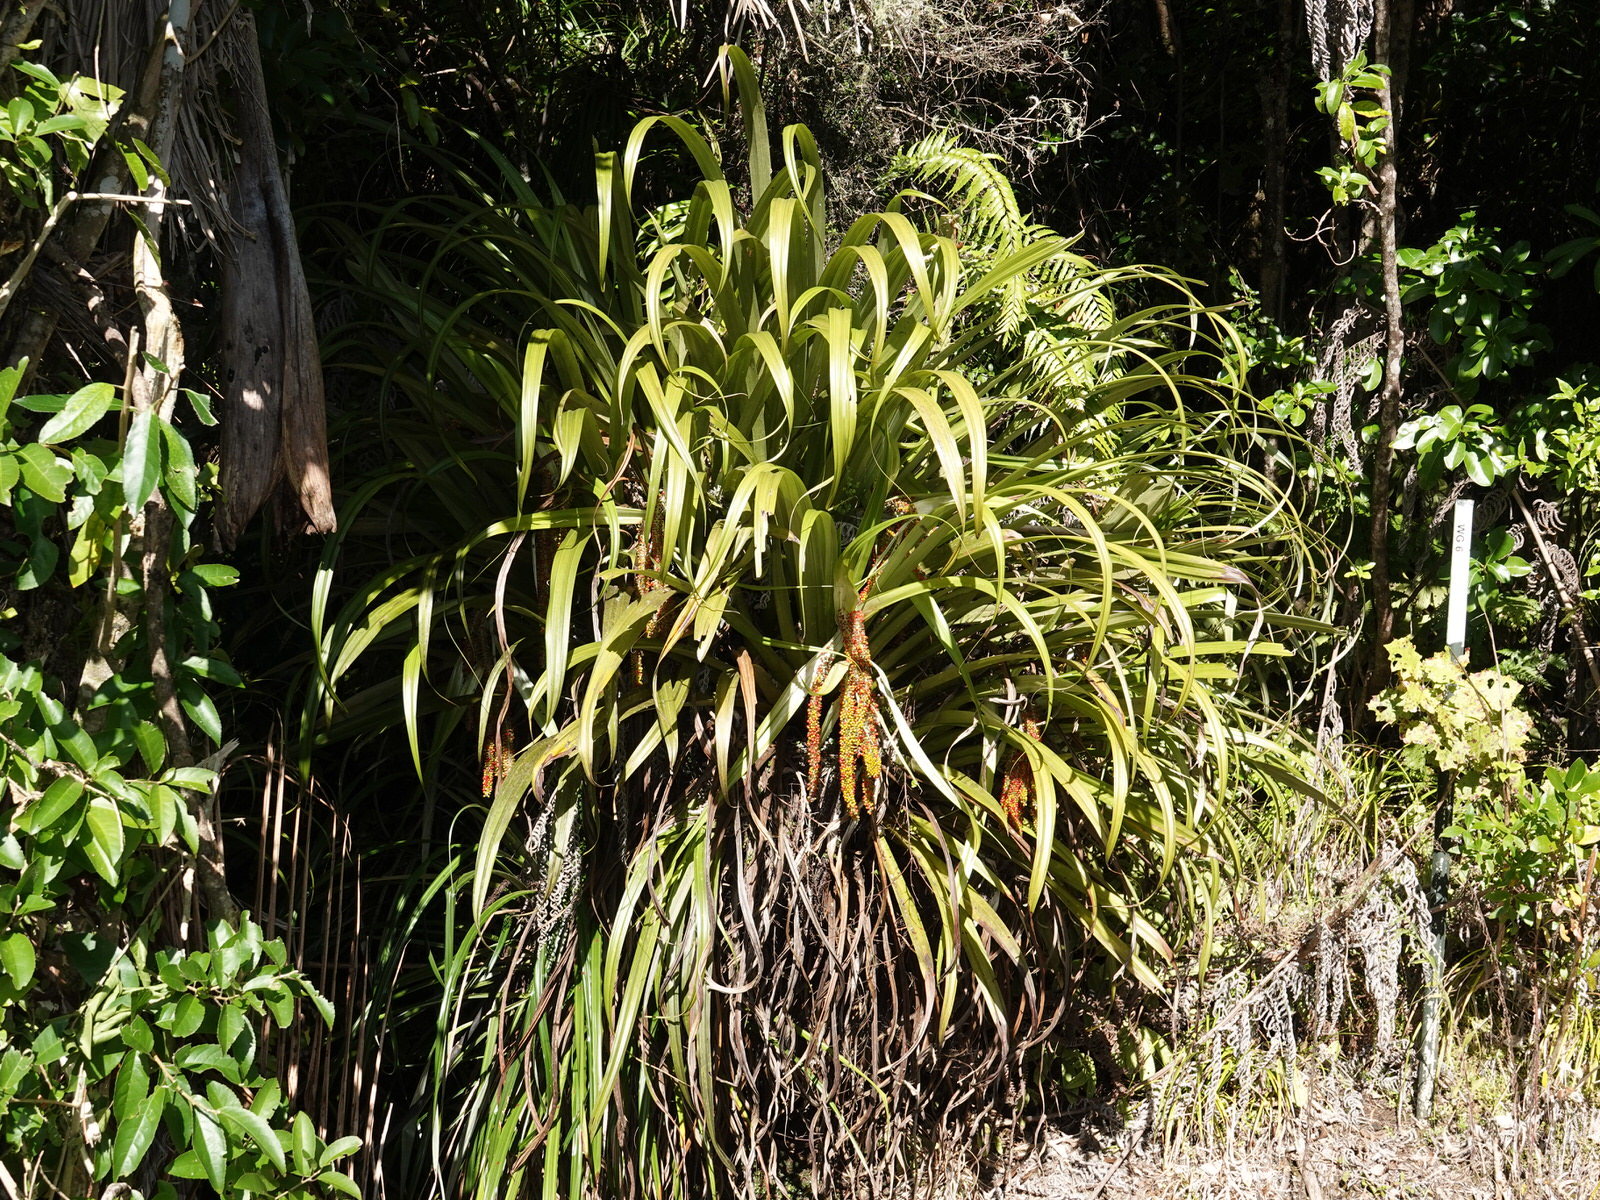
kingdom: Plantae
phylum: Tracheophyta
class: Liliopsida
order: Asparagales
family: Asteliaceae
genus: Astelia
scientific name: Astelia hastata
